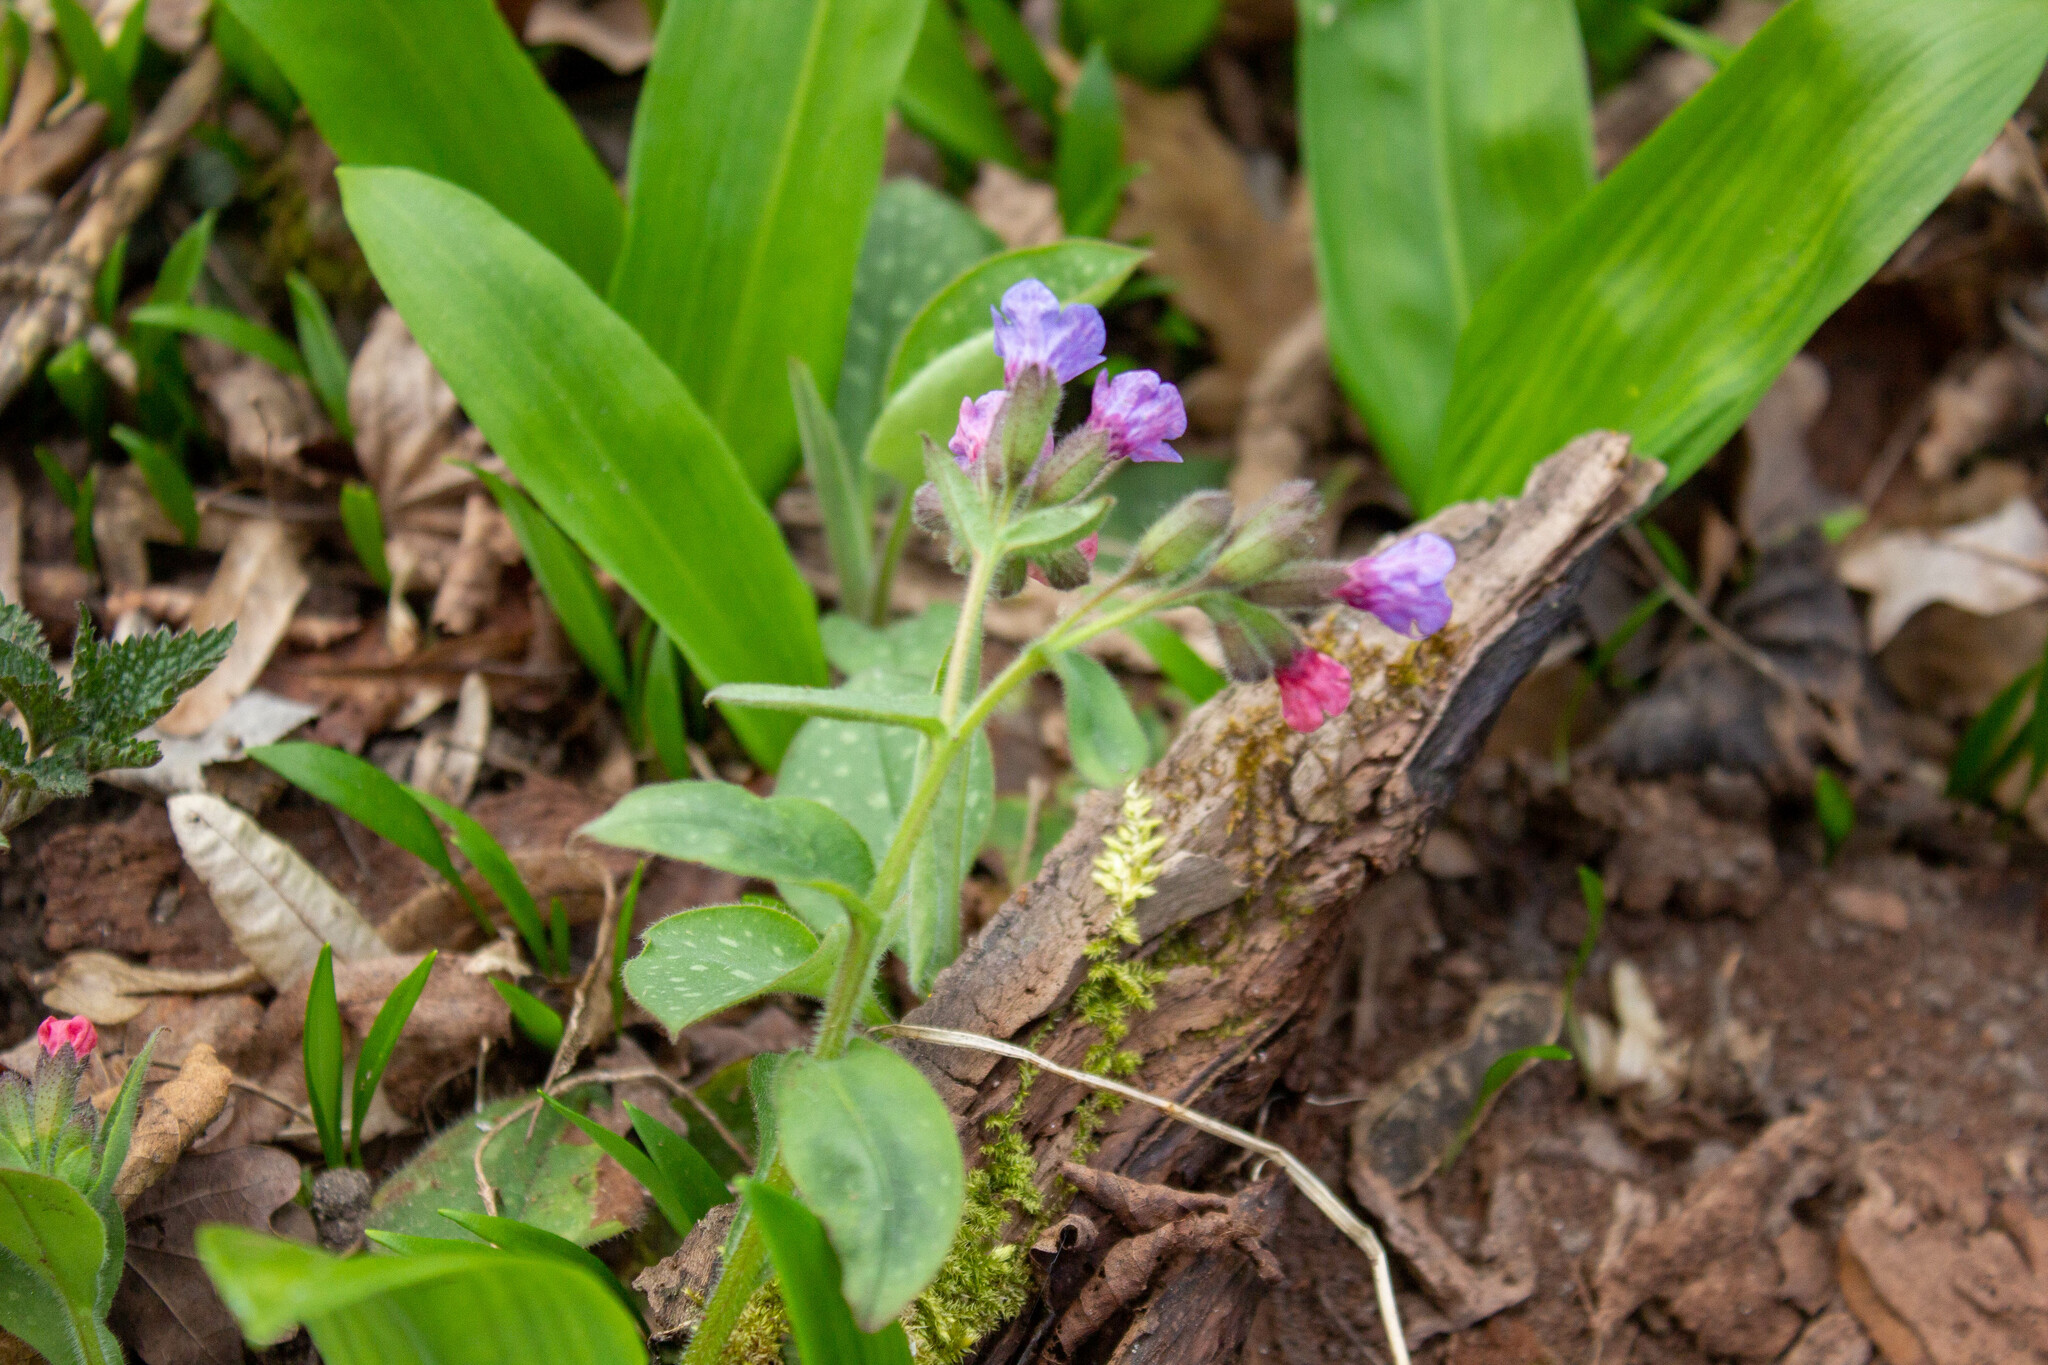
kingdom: Plantae
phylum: Tracheophyta
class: Magnoliopsida
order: Boraginales
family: Boraginaceae
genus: Pulmonaria
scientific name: Pulmonaria officinalis
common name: Lungwort
